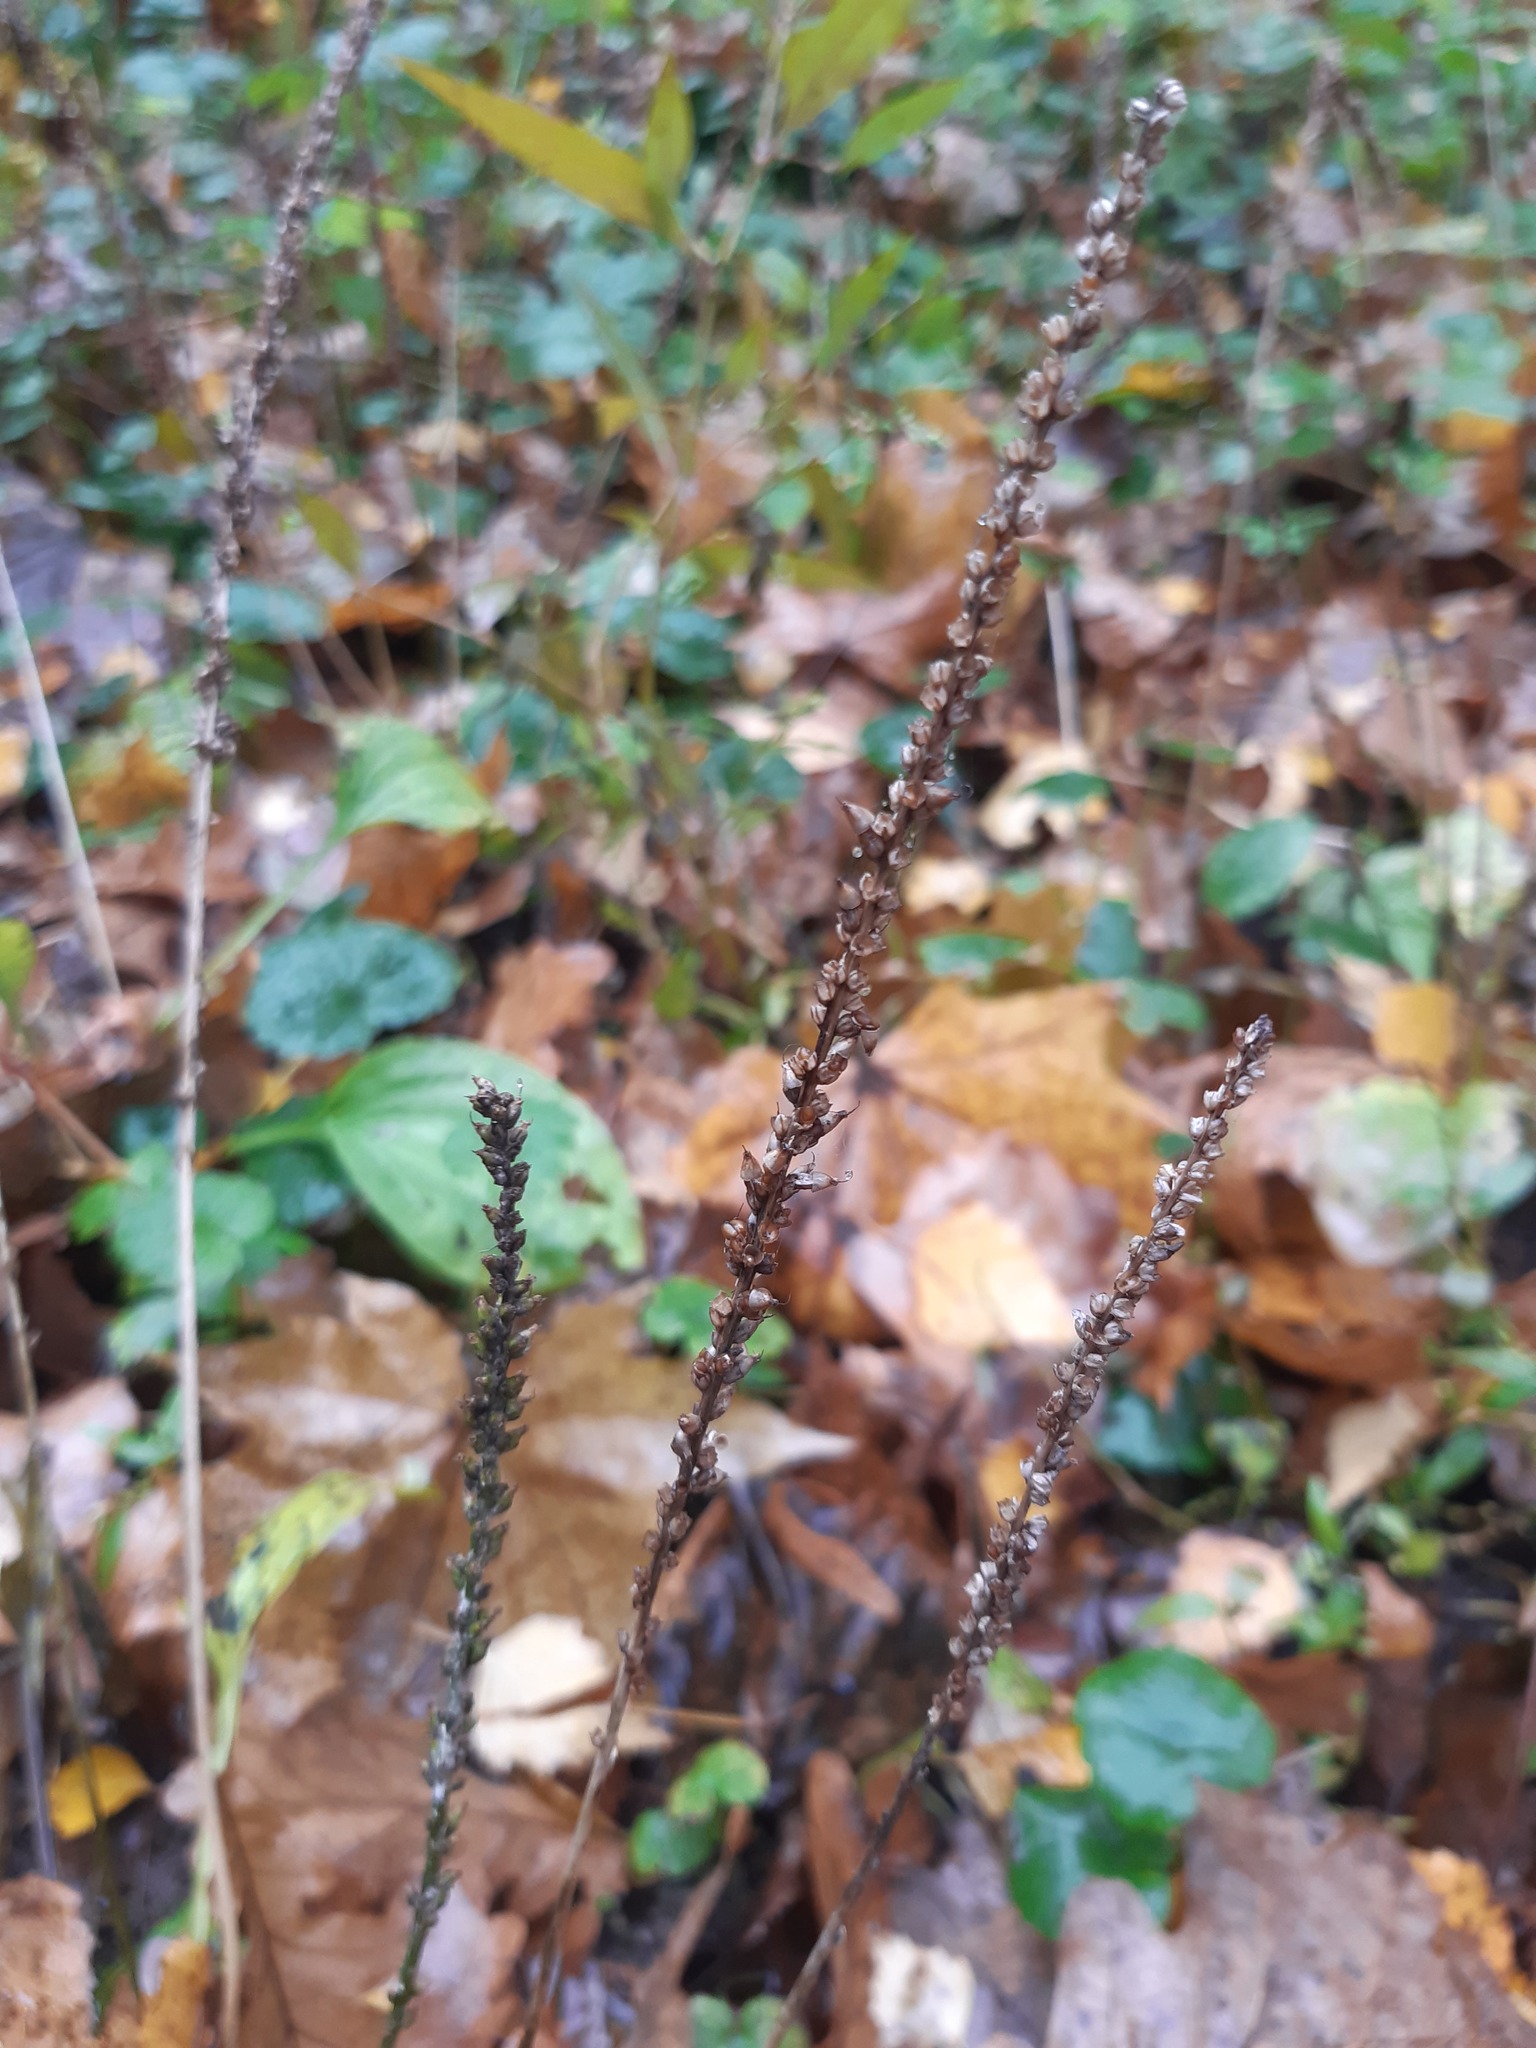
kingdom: Plantae
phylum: Tracheophyta
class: Magnoliopsida
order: Lamiales
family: Plantaginaceae
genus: Plantago
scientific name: Plantago major
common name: Common plantain
